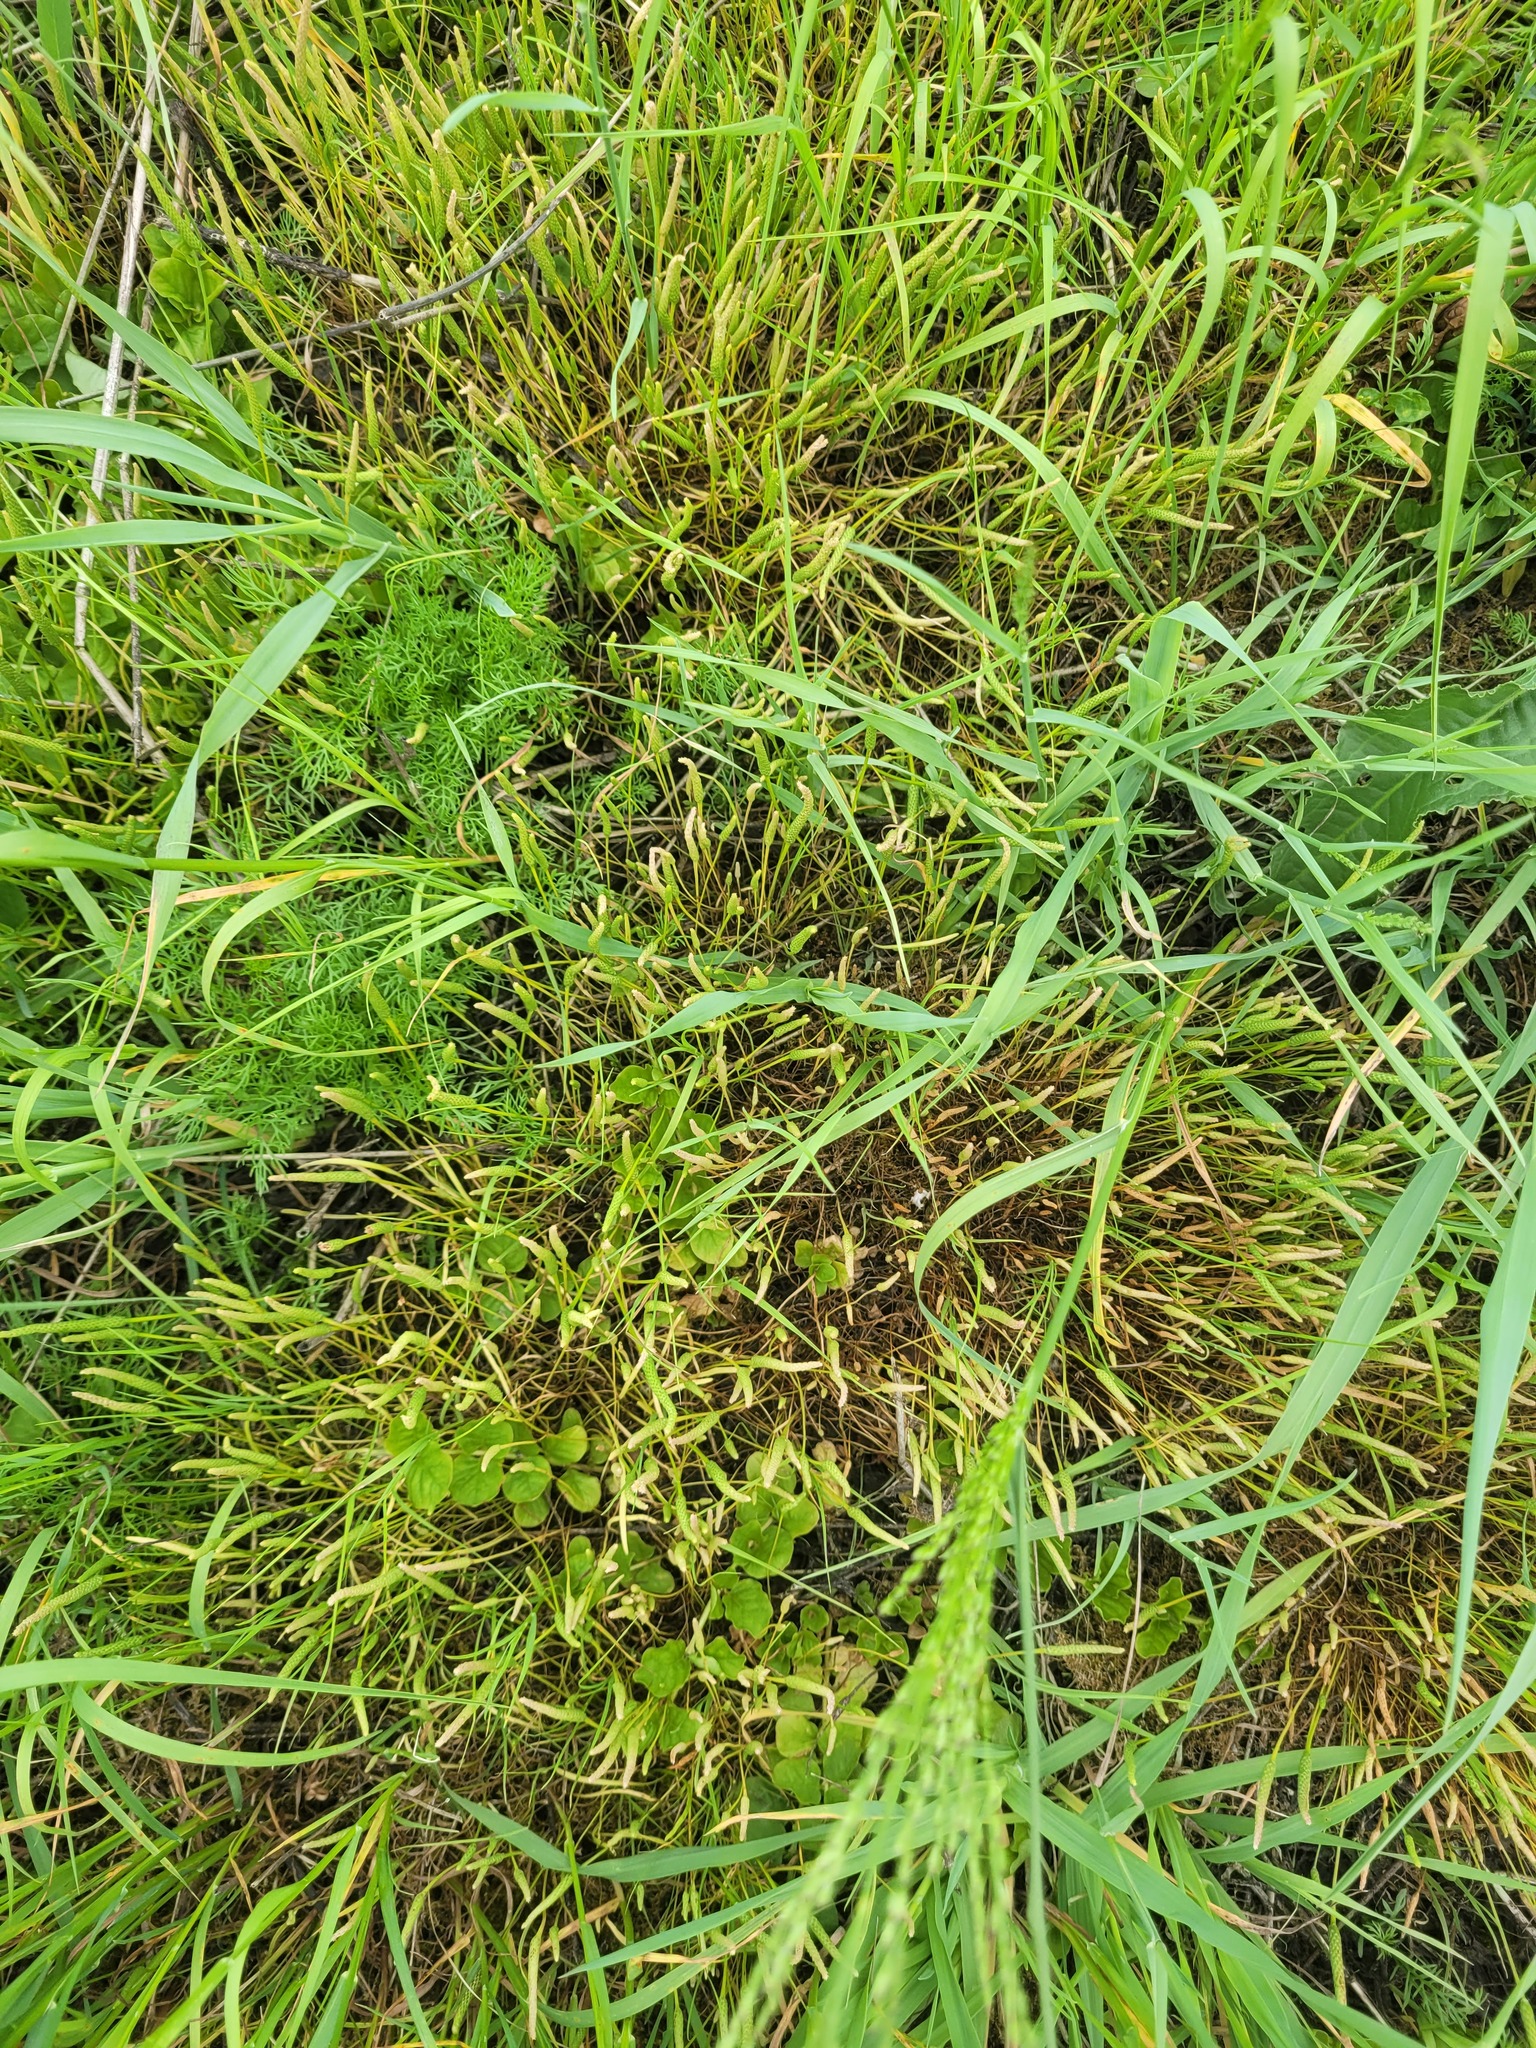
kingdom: Plantae
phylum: Tracheophyta
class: Magnoliopsida
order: Ranunculales
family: Ranunculaceae
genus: Myosurus
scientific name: Myosurus minimus
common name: Mousetail
